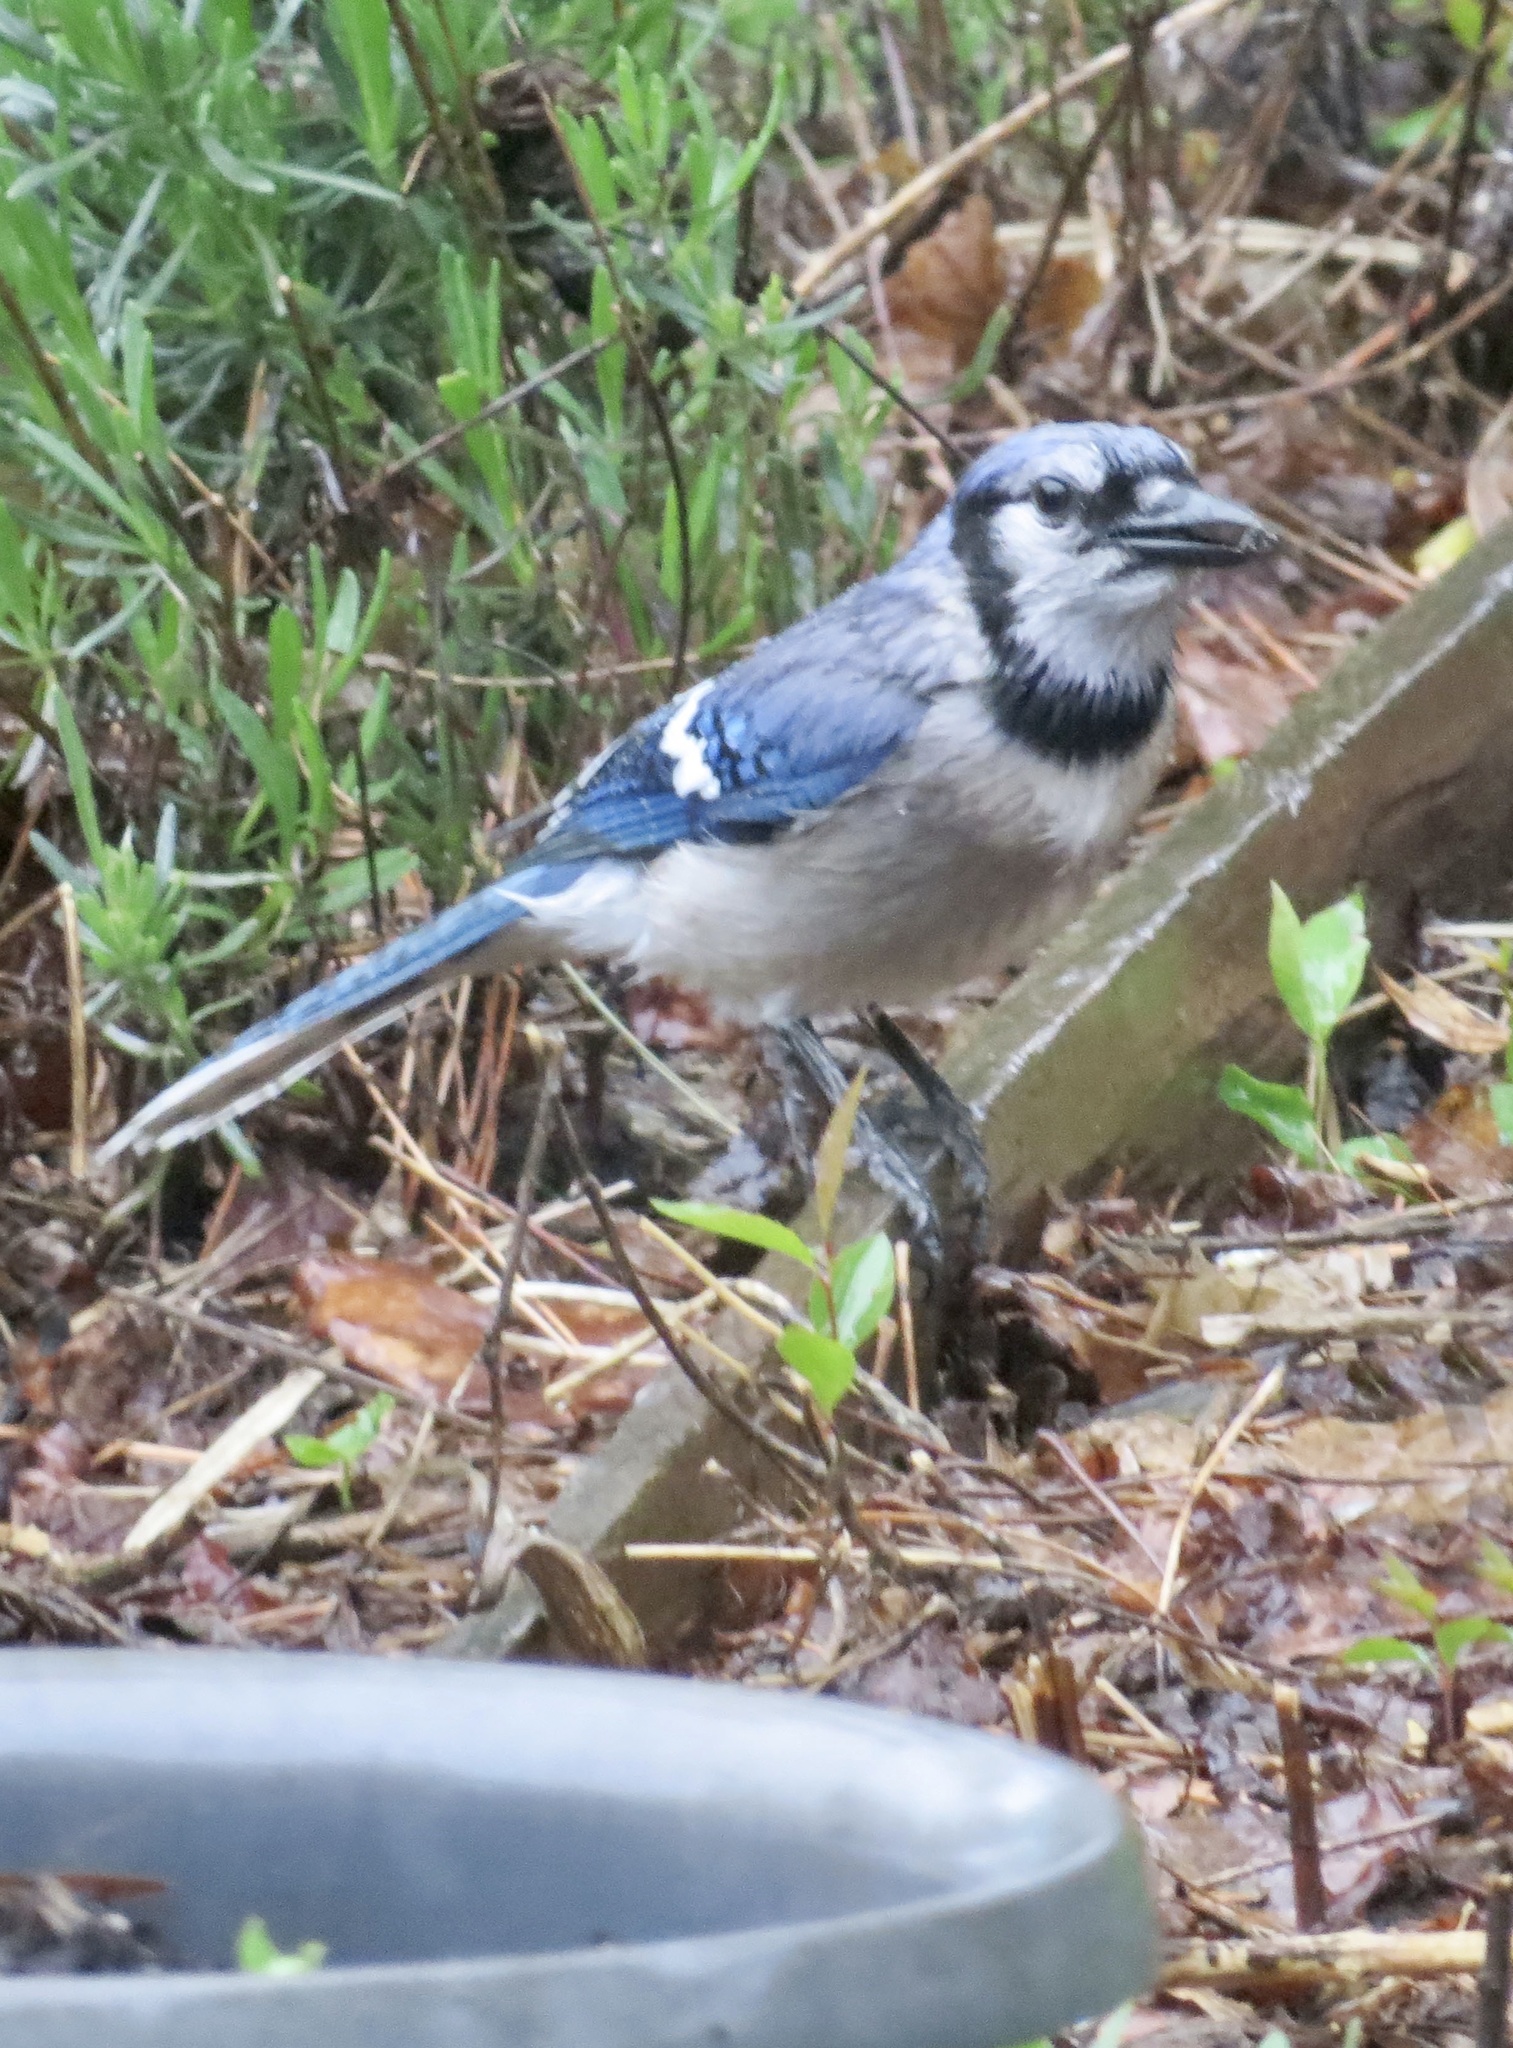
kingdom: Animalia
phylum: Chordata
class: Aves
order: Passeriformes
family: Corvidae
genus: Cyanocitta
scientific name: Cyanocitta cristata
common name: Blue jay
